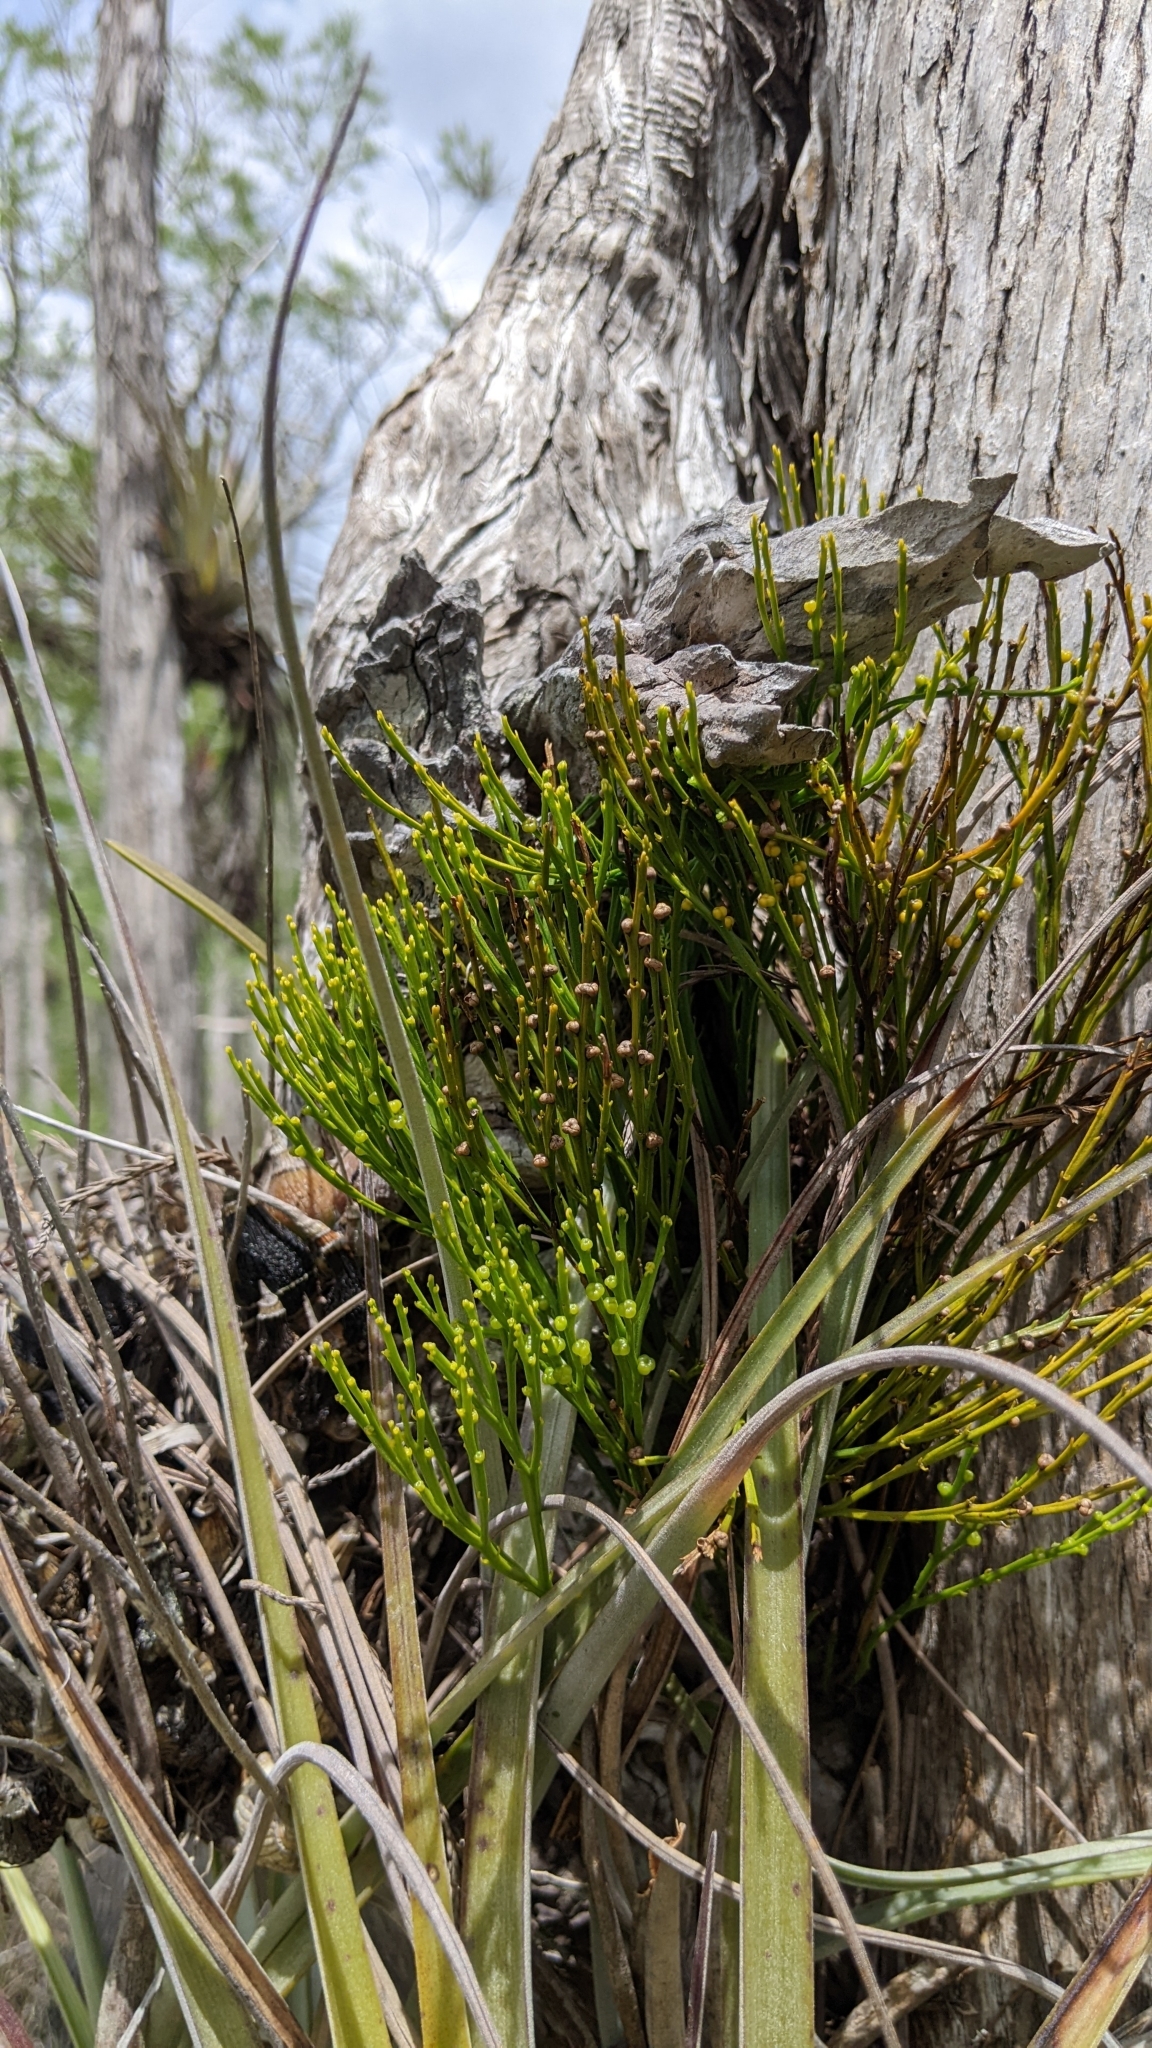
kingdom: Plantae
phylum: Tracheophyta
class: Polypodiopsida
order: Psilotales
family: Psilotaceae
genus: Psilotum
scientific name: Psilotum nudum
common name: Skeleton fork fern
